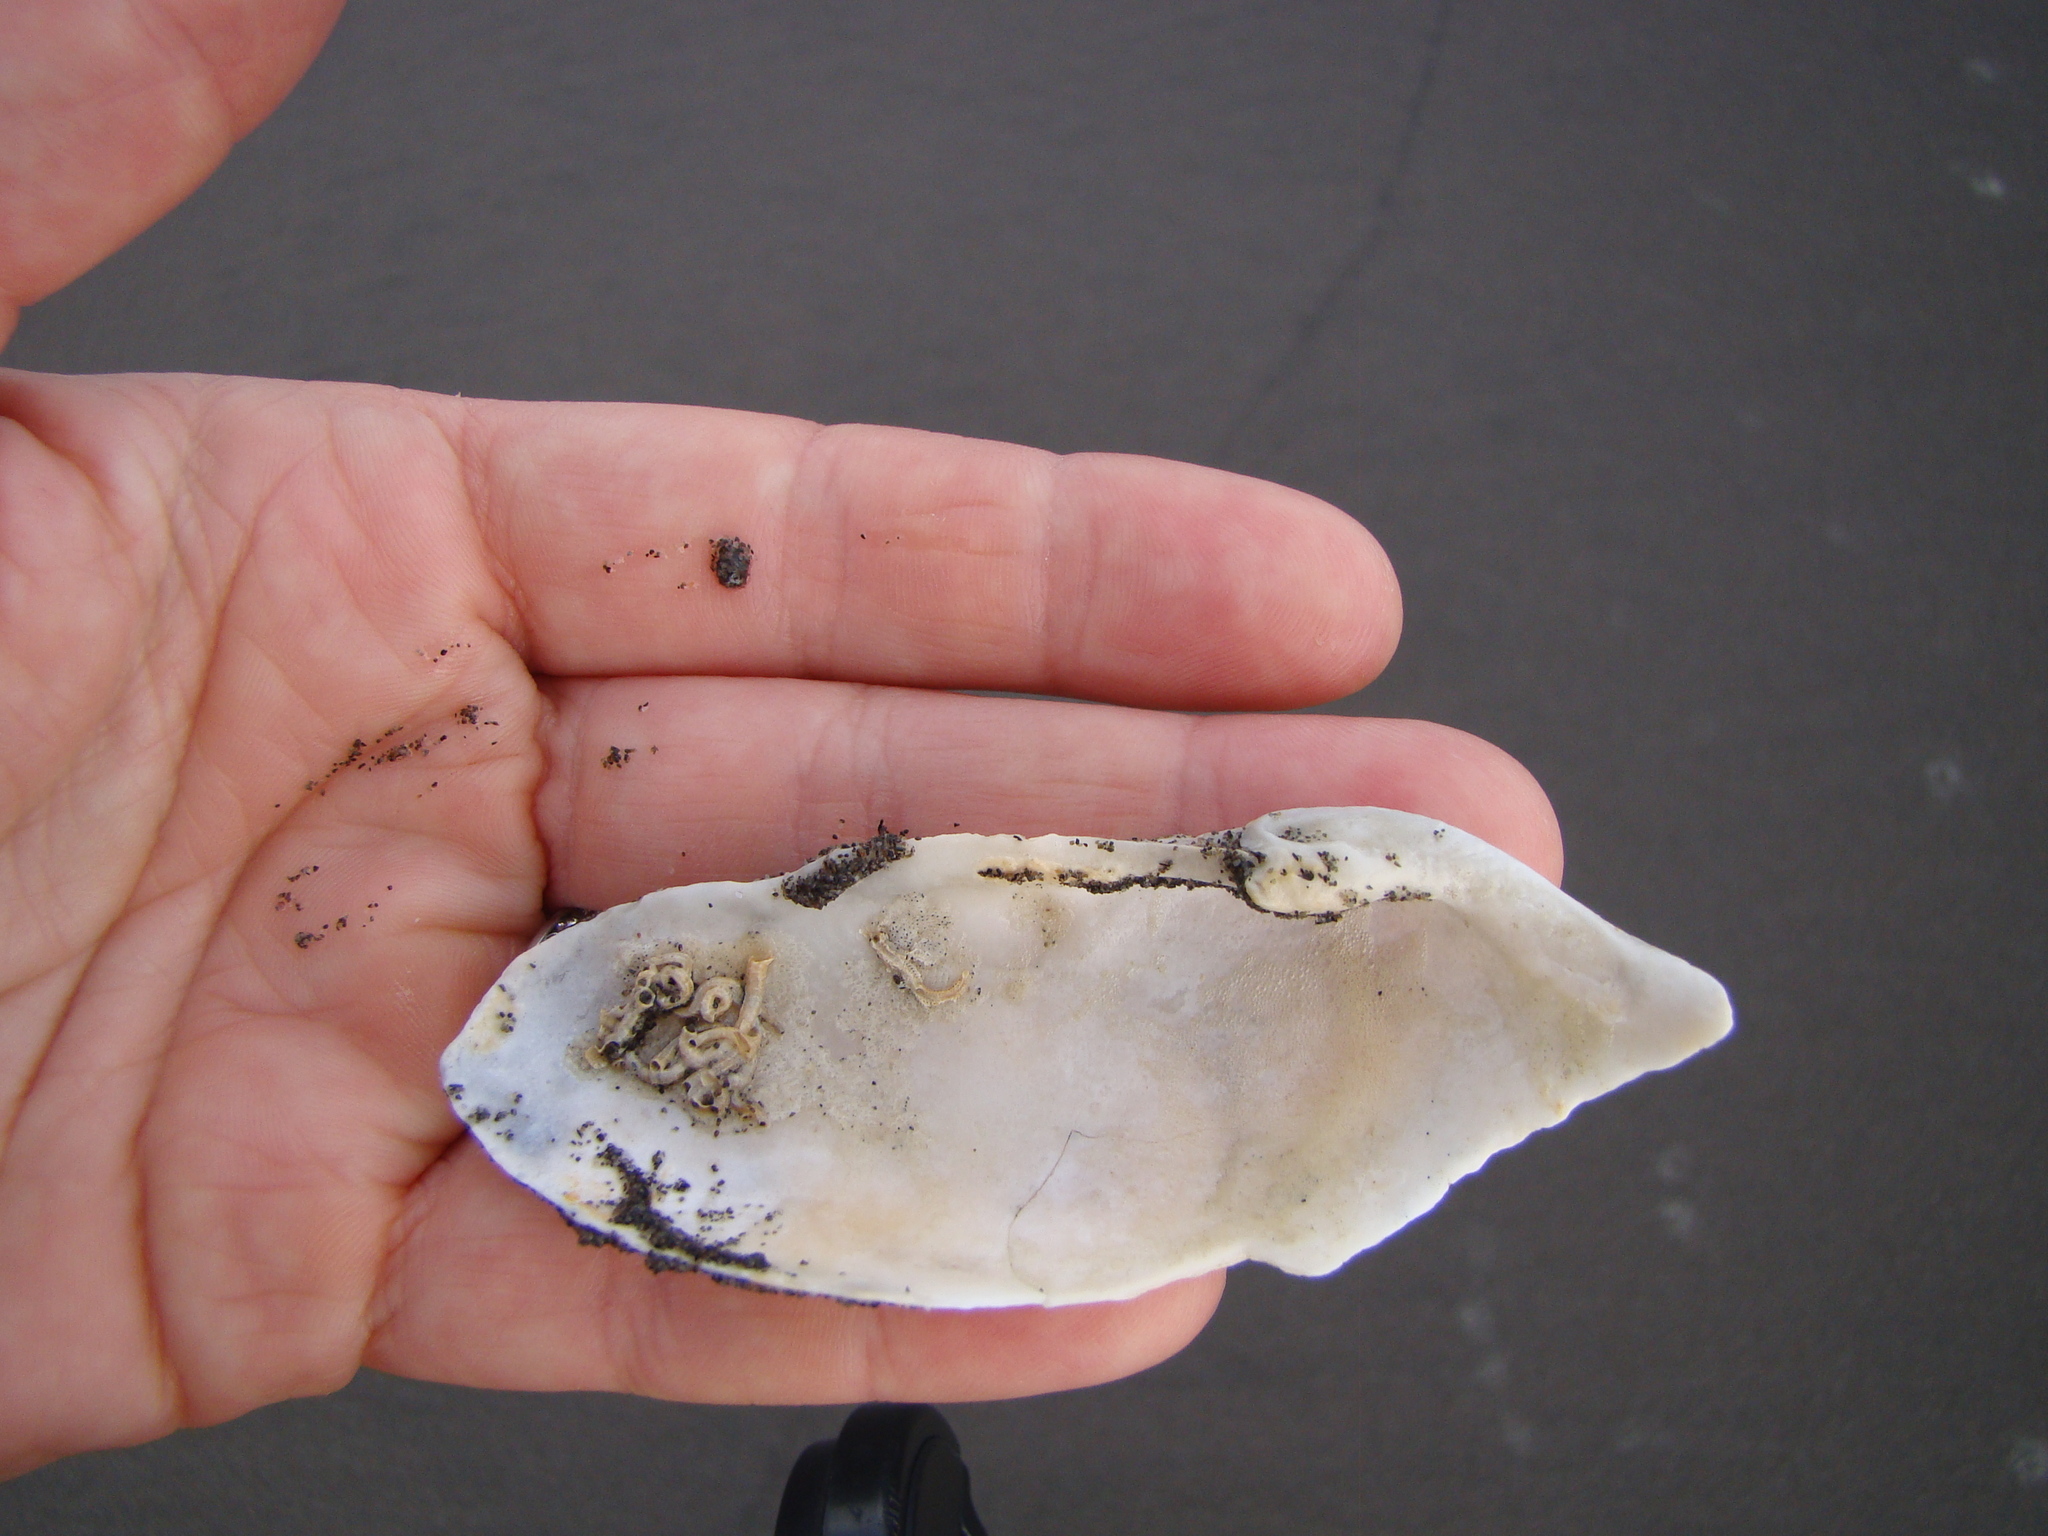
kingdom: Animalia
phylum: Mollusca
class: Bivalvia
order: Myida
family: Pholadidae
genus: Barnea
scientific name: Barnea similis
